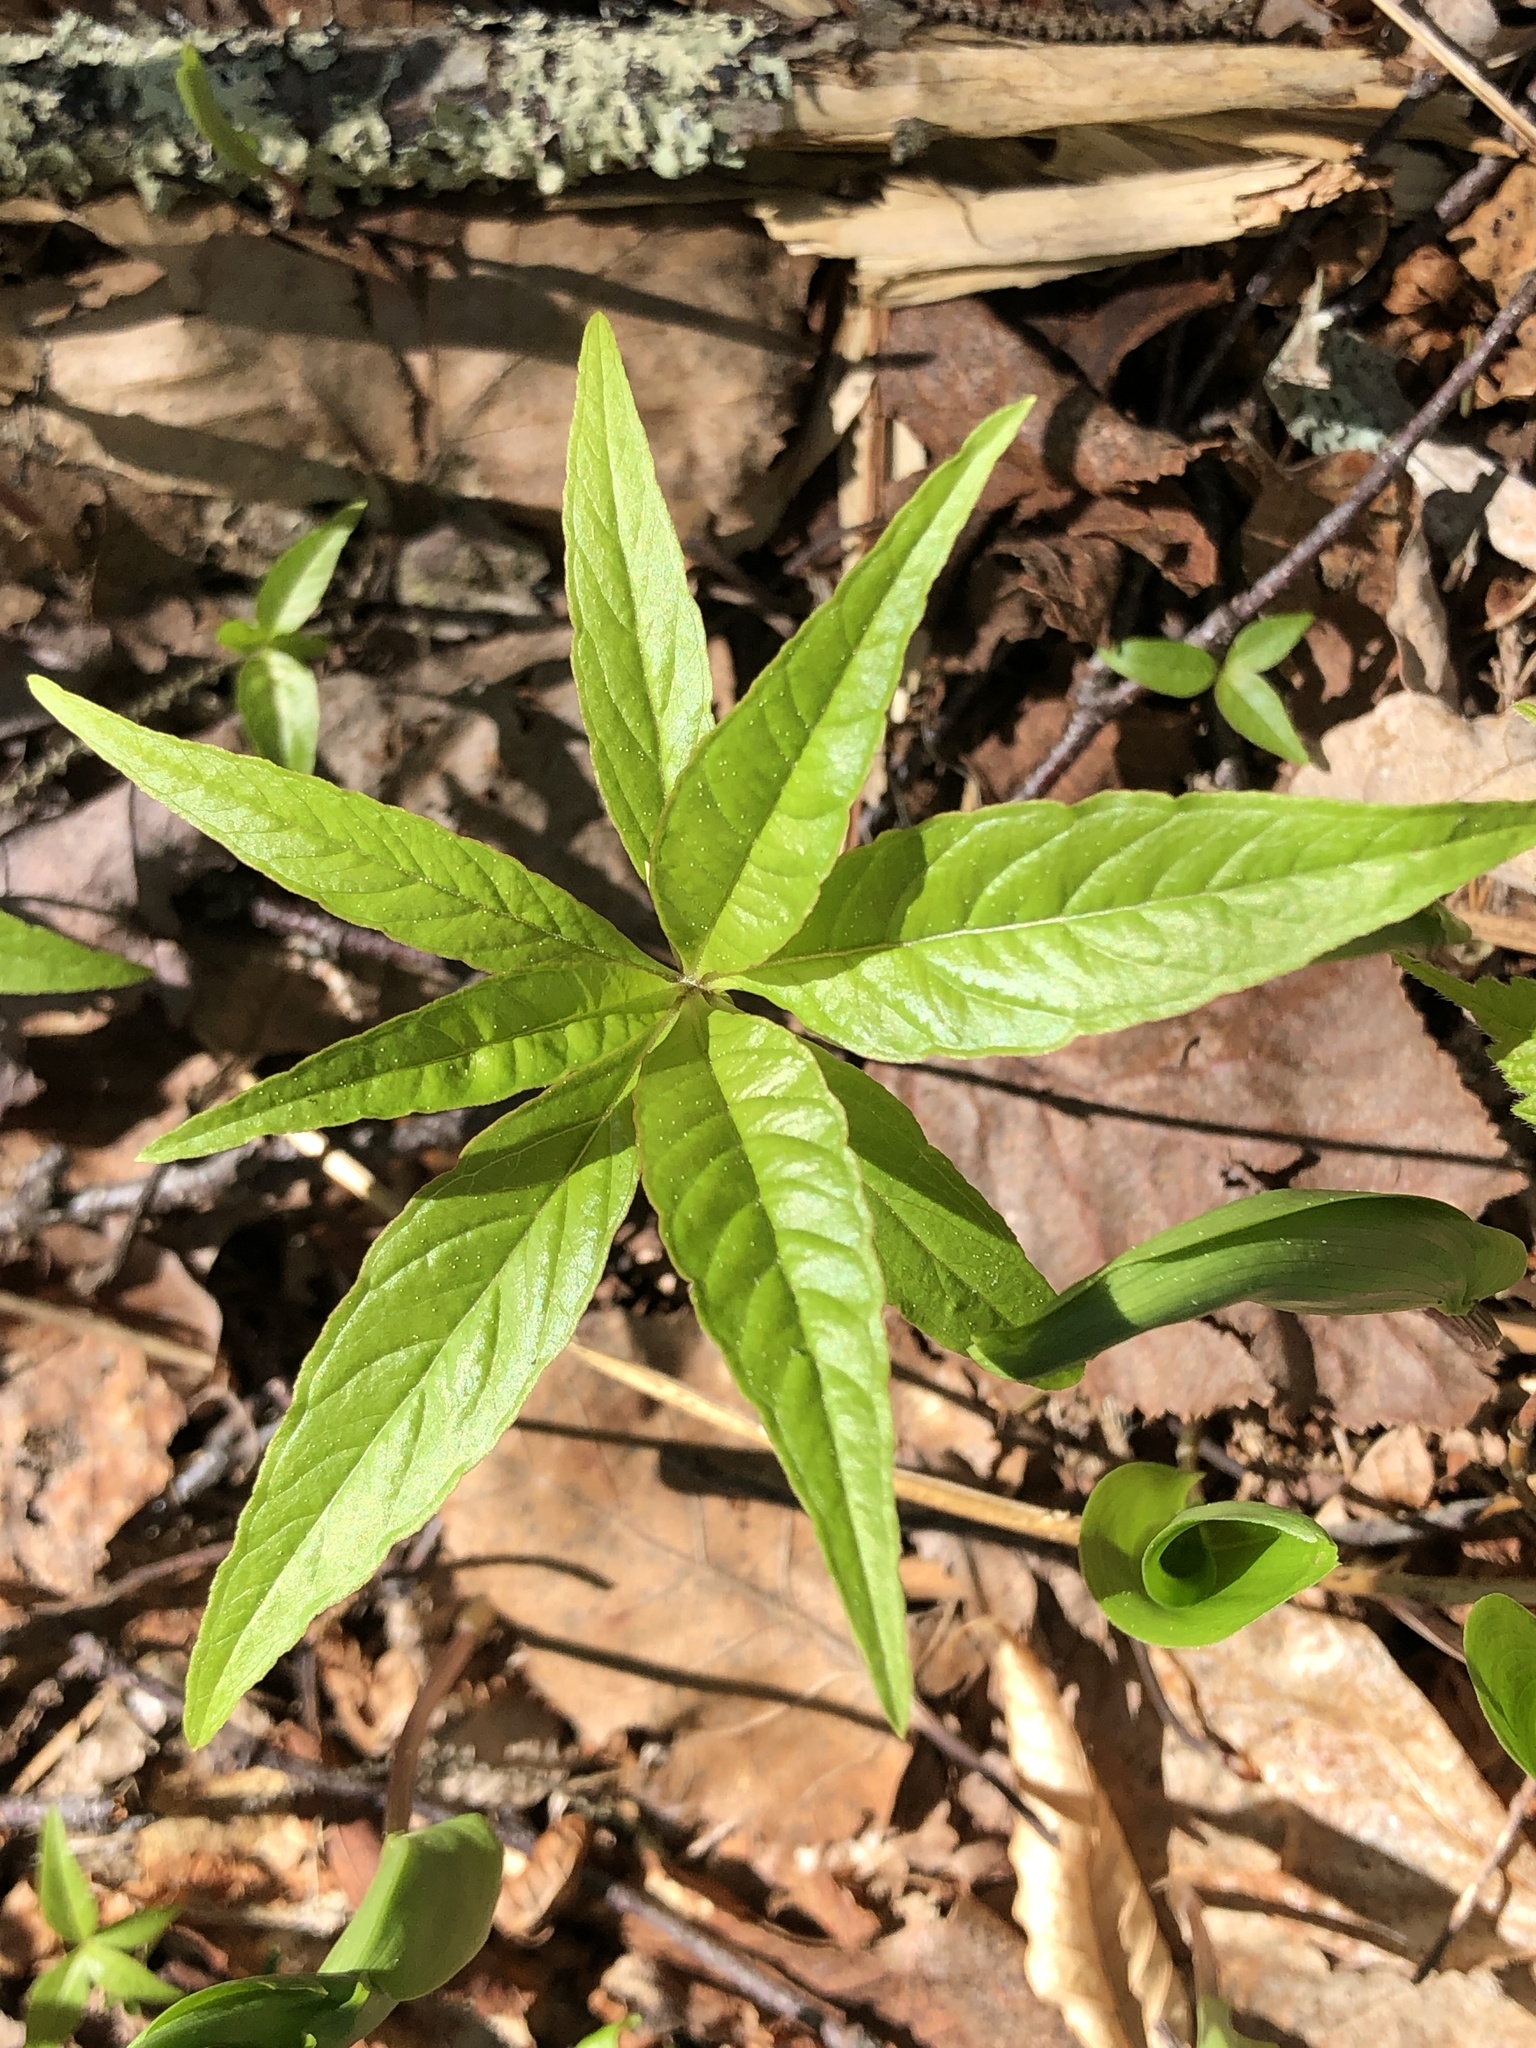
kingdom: Plantae
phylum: Tracheophyta
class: Magnoliopsida
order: Ericales
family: Primulaceae
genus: Lysimachia
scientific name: Lysimachia borealis
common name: American starflower
